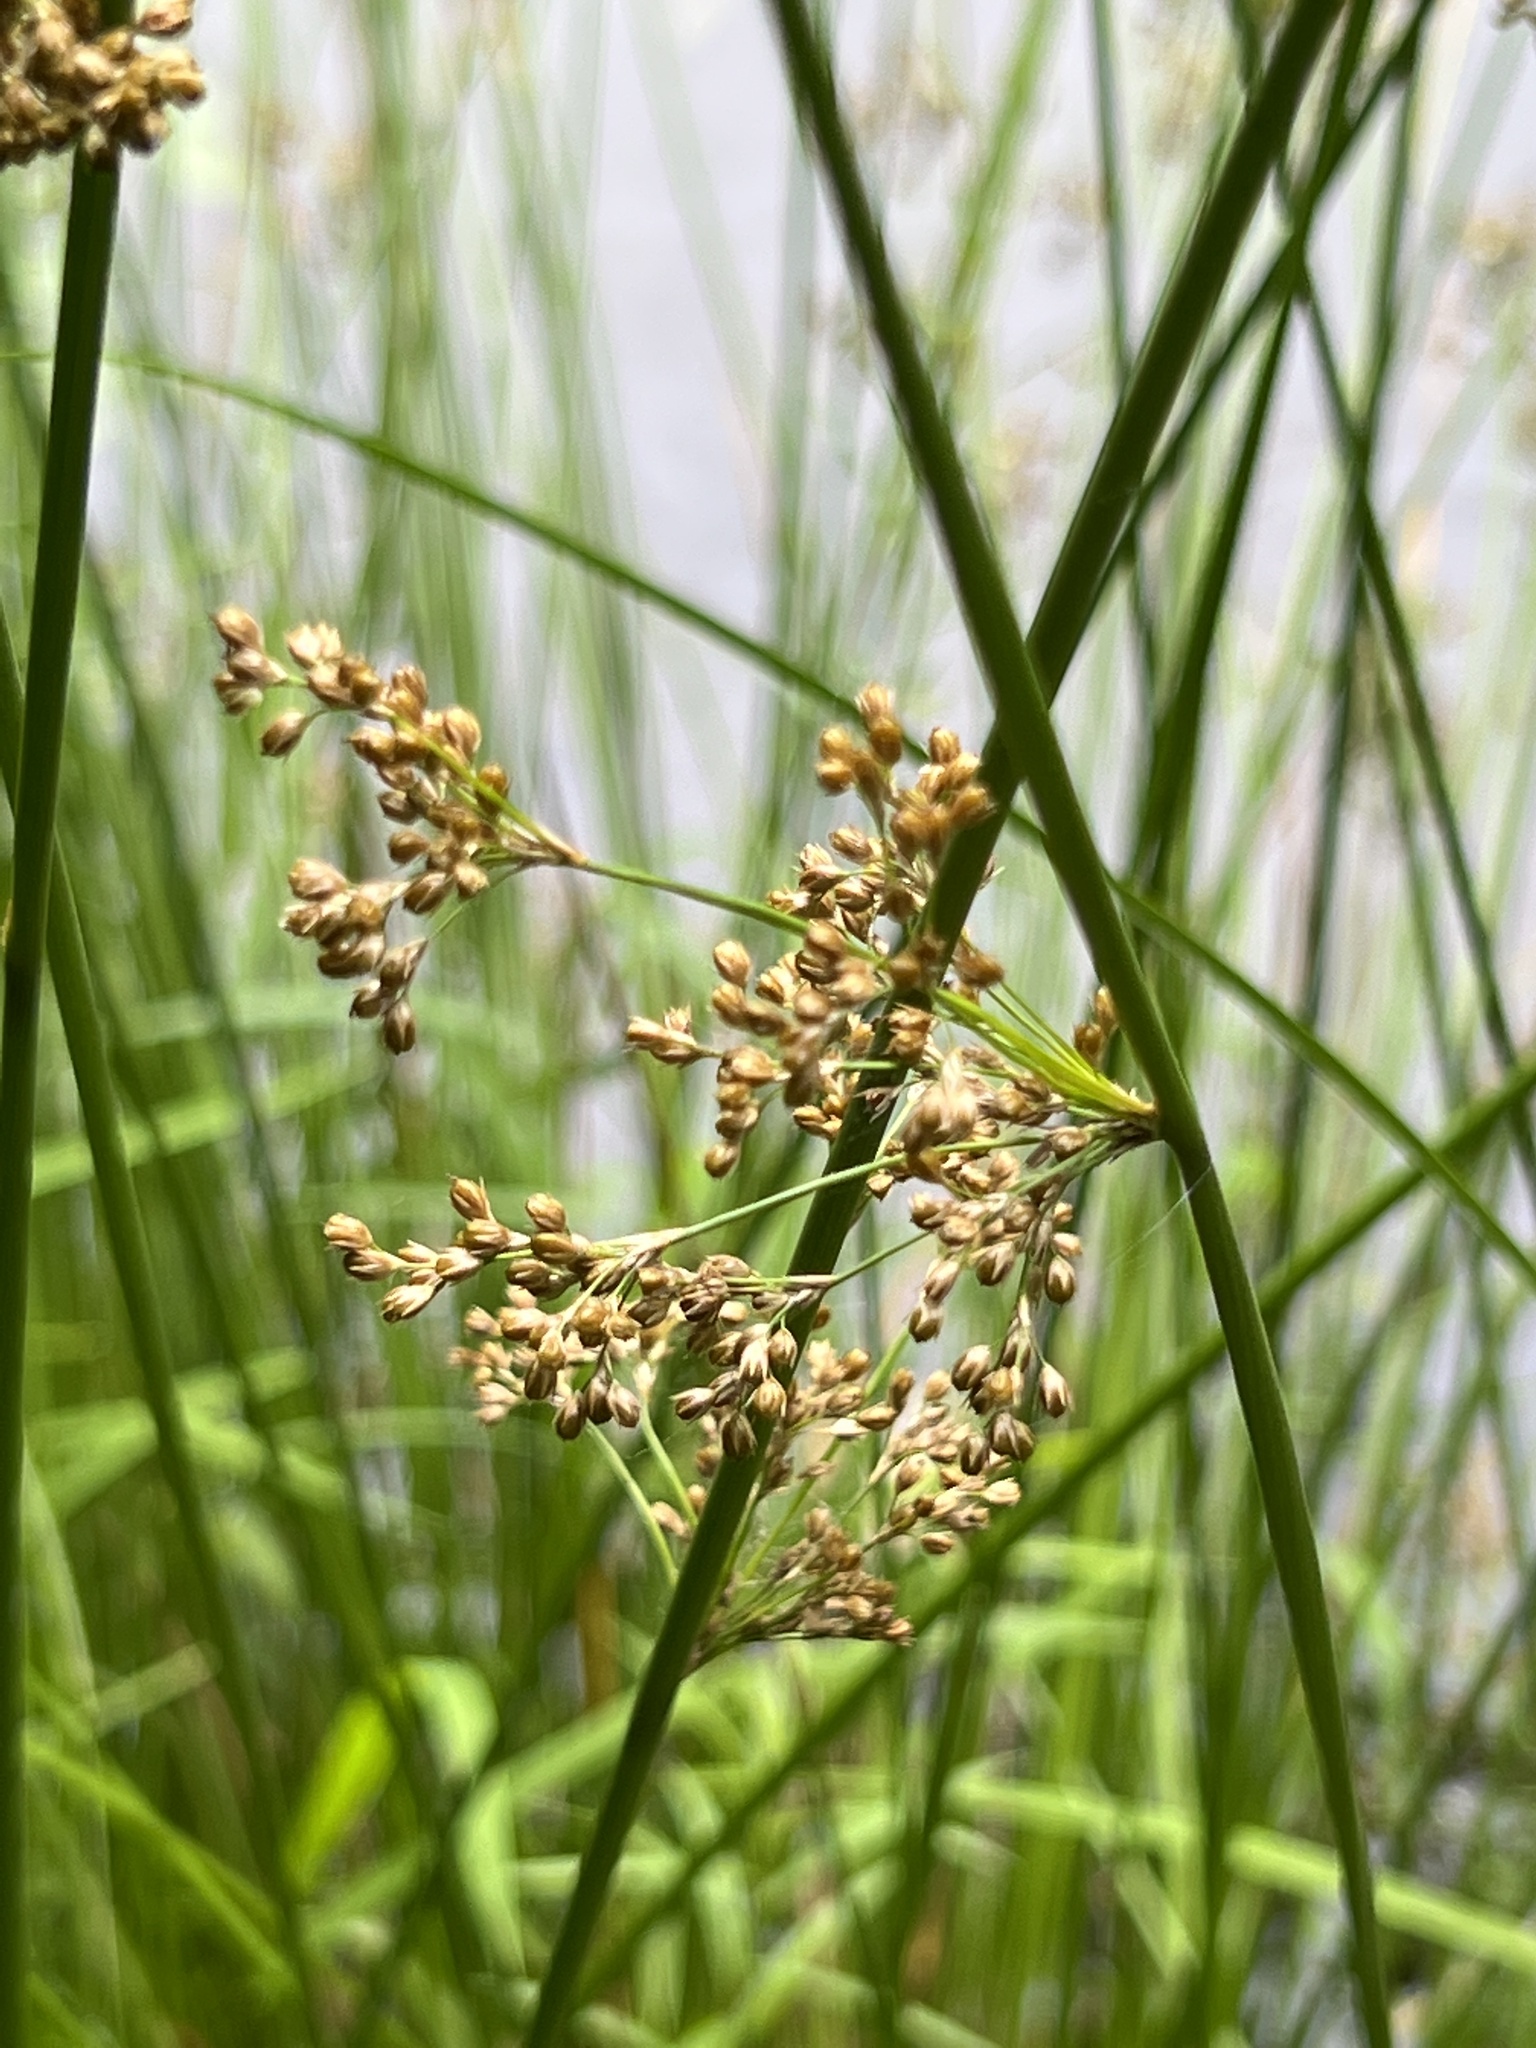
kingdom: Plantae
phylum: Tracheophyta
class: Liliopsida
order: Poales
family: Juncaceae
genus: Juncus
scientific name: Juncus effusus
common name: Soft rush
